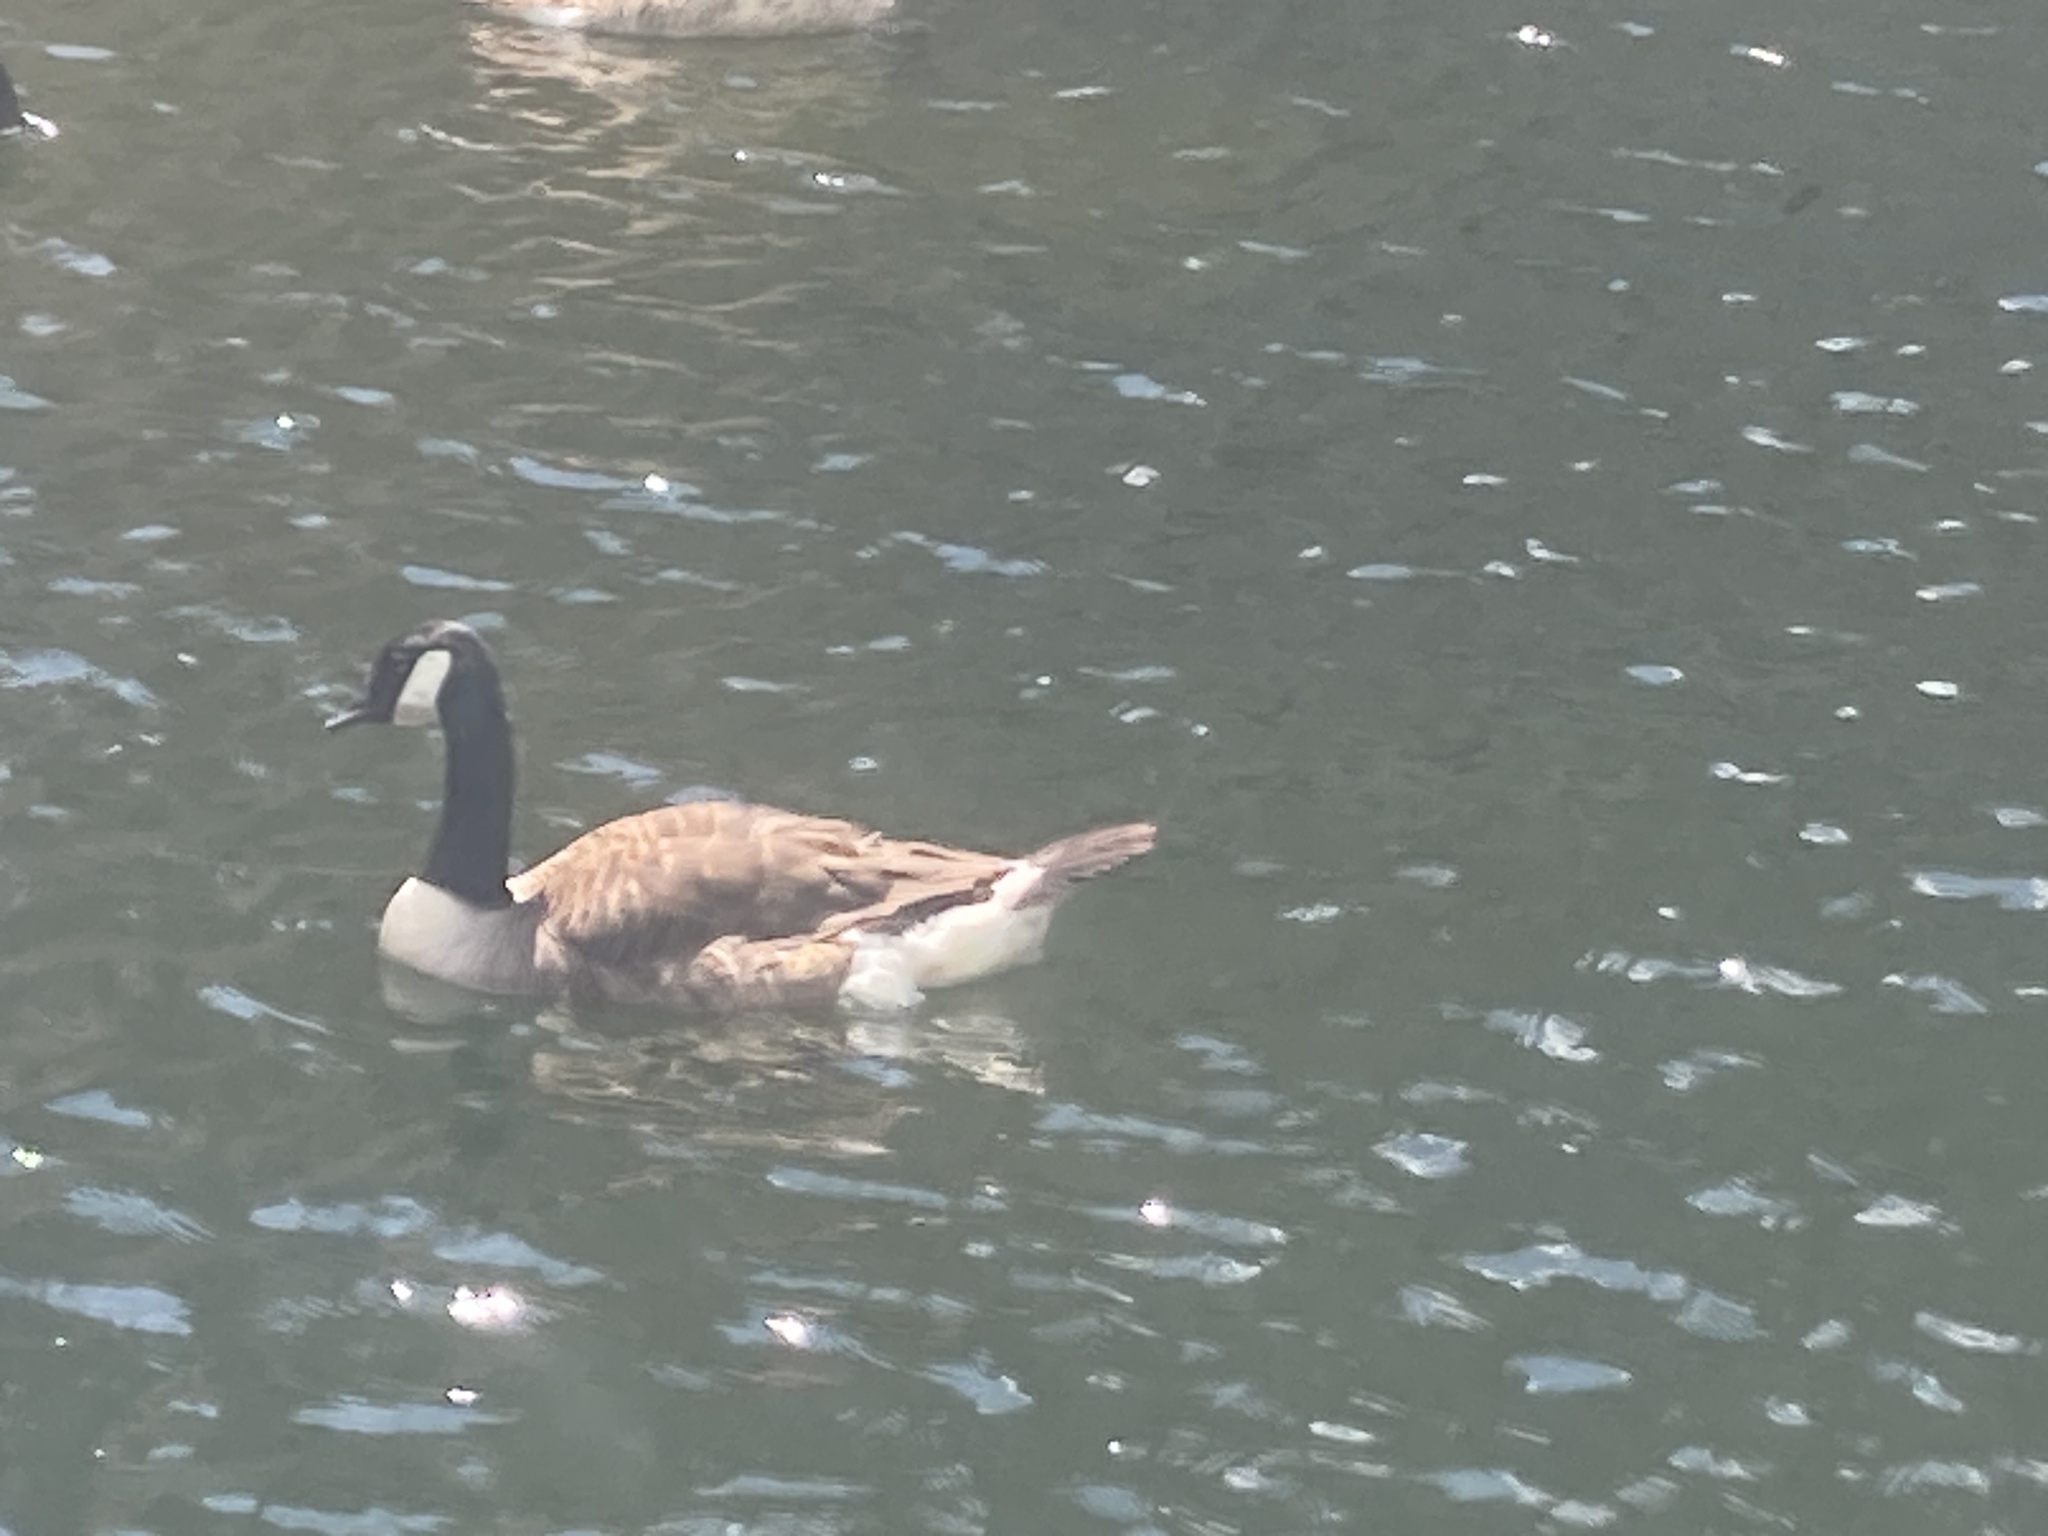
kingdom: Animalia
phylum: Chordata
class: Aves
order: Anseriformes
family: Anatidae
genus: Branta
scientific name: Branta canadensis
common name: Canada goose
